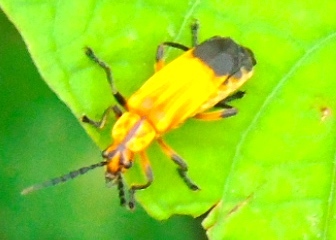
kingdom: Animalia
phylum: Arthropoda
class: Insecta
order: Coleoptera
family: Cantharidae
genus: Daiphron
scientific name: Daiphron proteum
